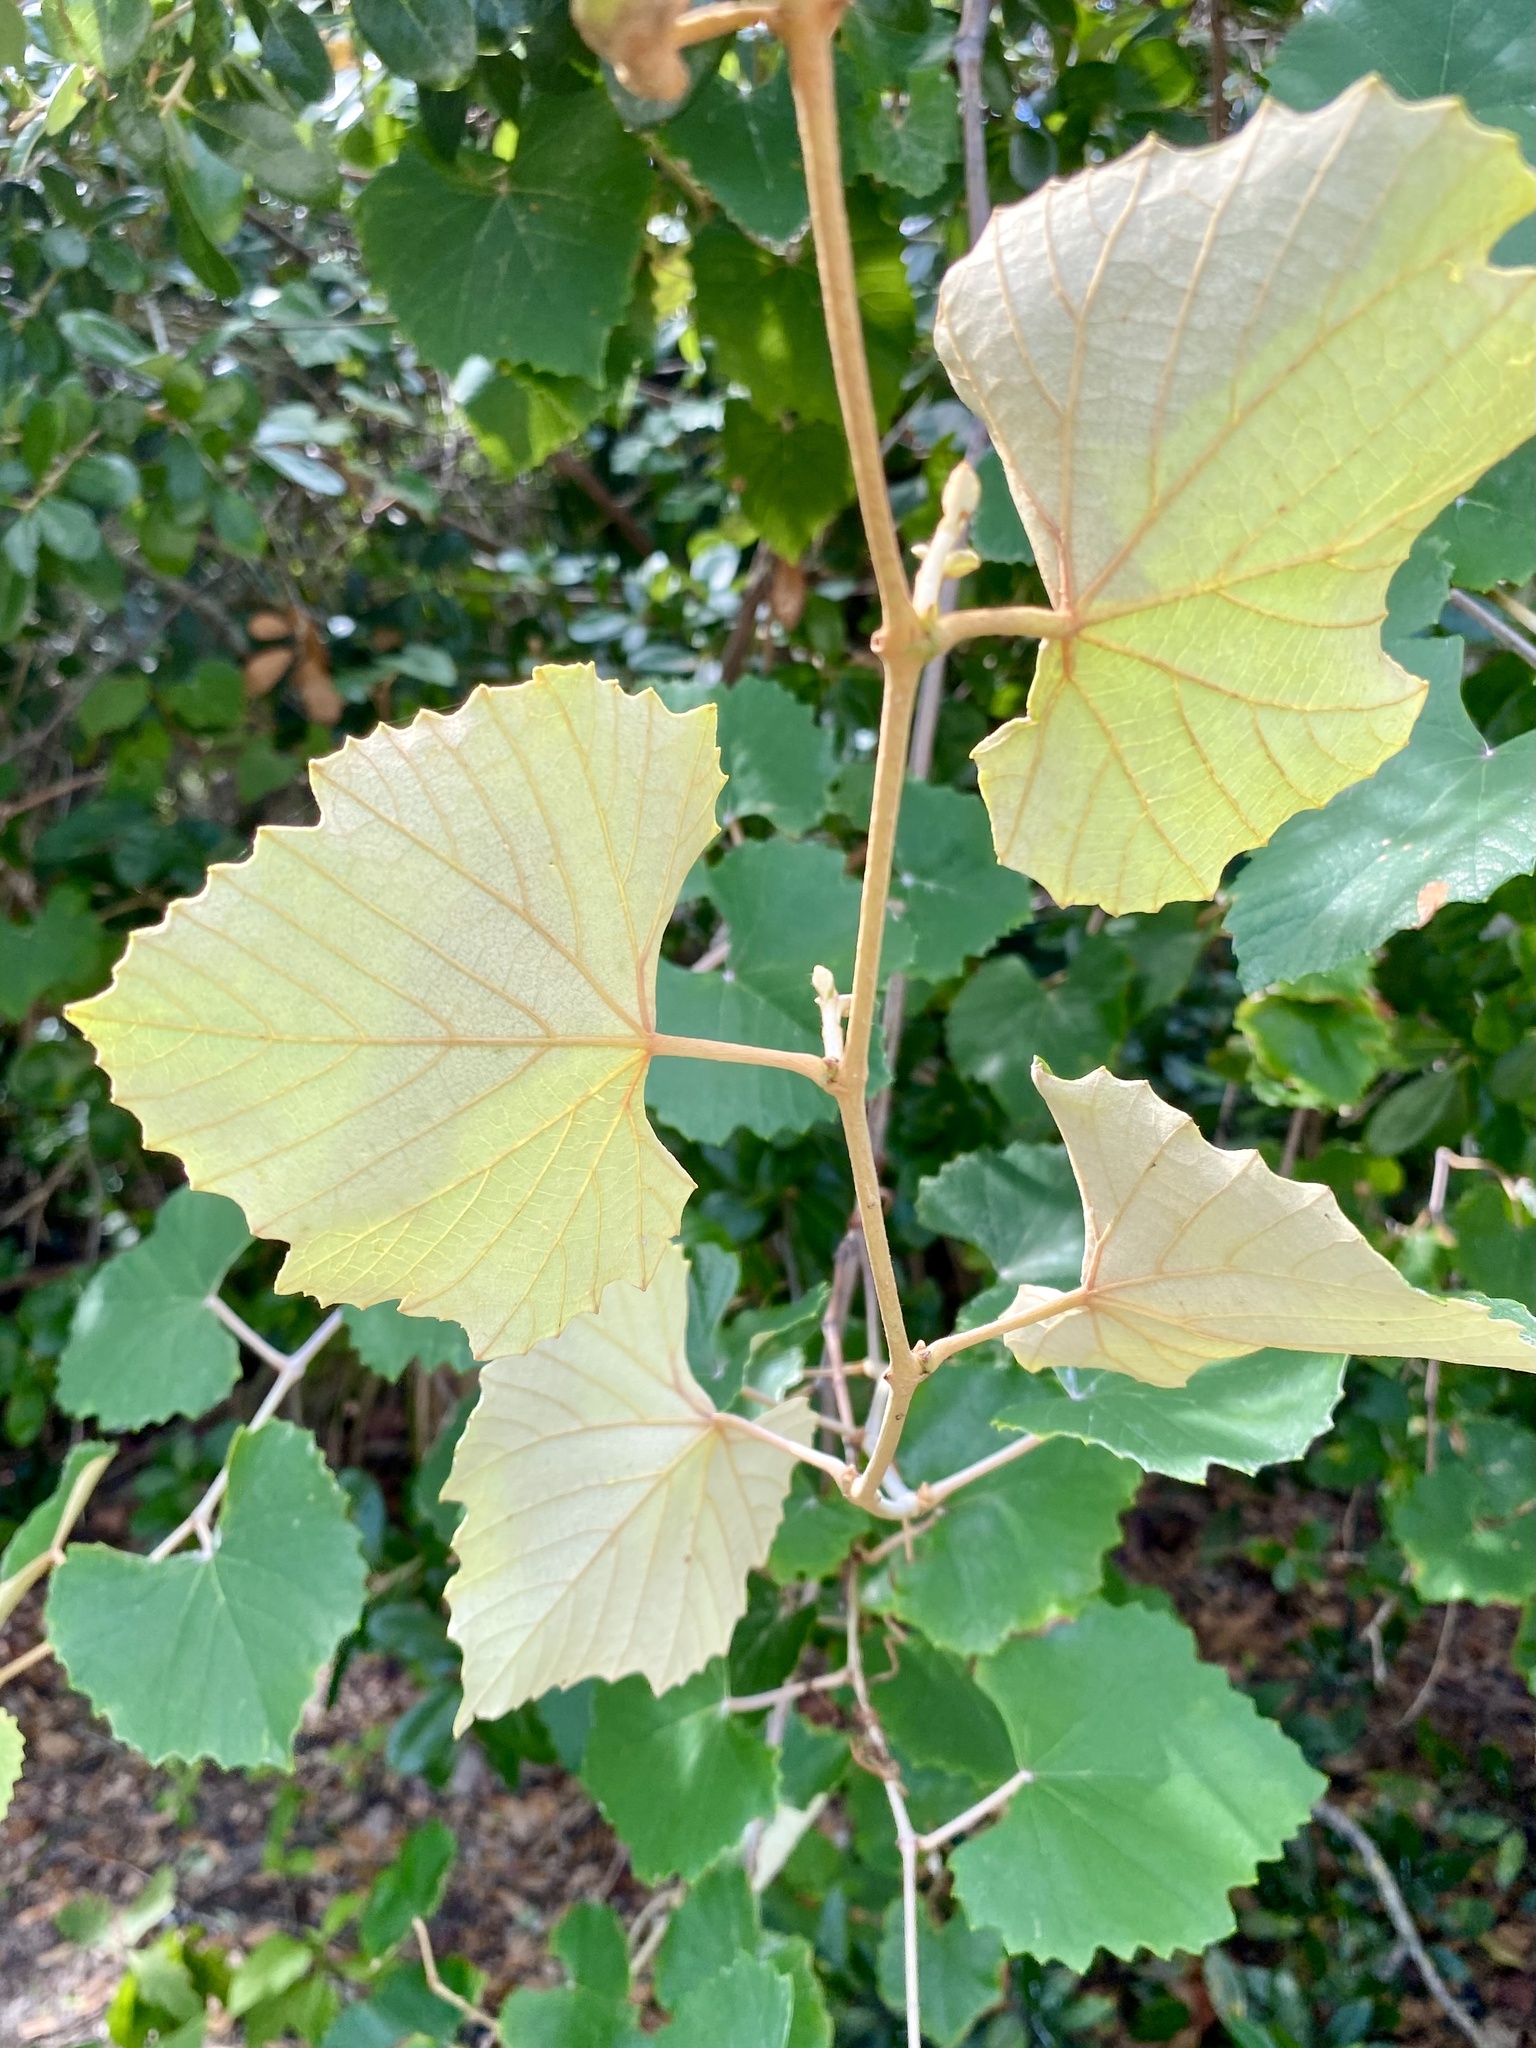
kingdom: Plantae
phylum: Tracheophyta
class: Magnoliopsida
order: Vitales
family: Vitaceae
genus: Vitis
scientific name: Vitis shuttleworthii
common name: Caloosa grape
